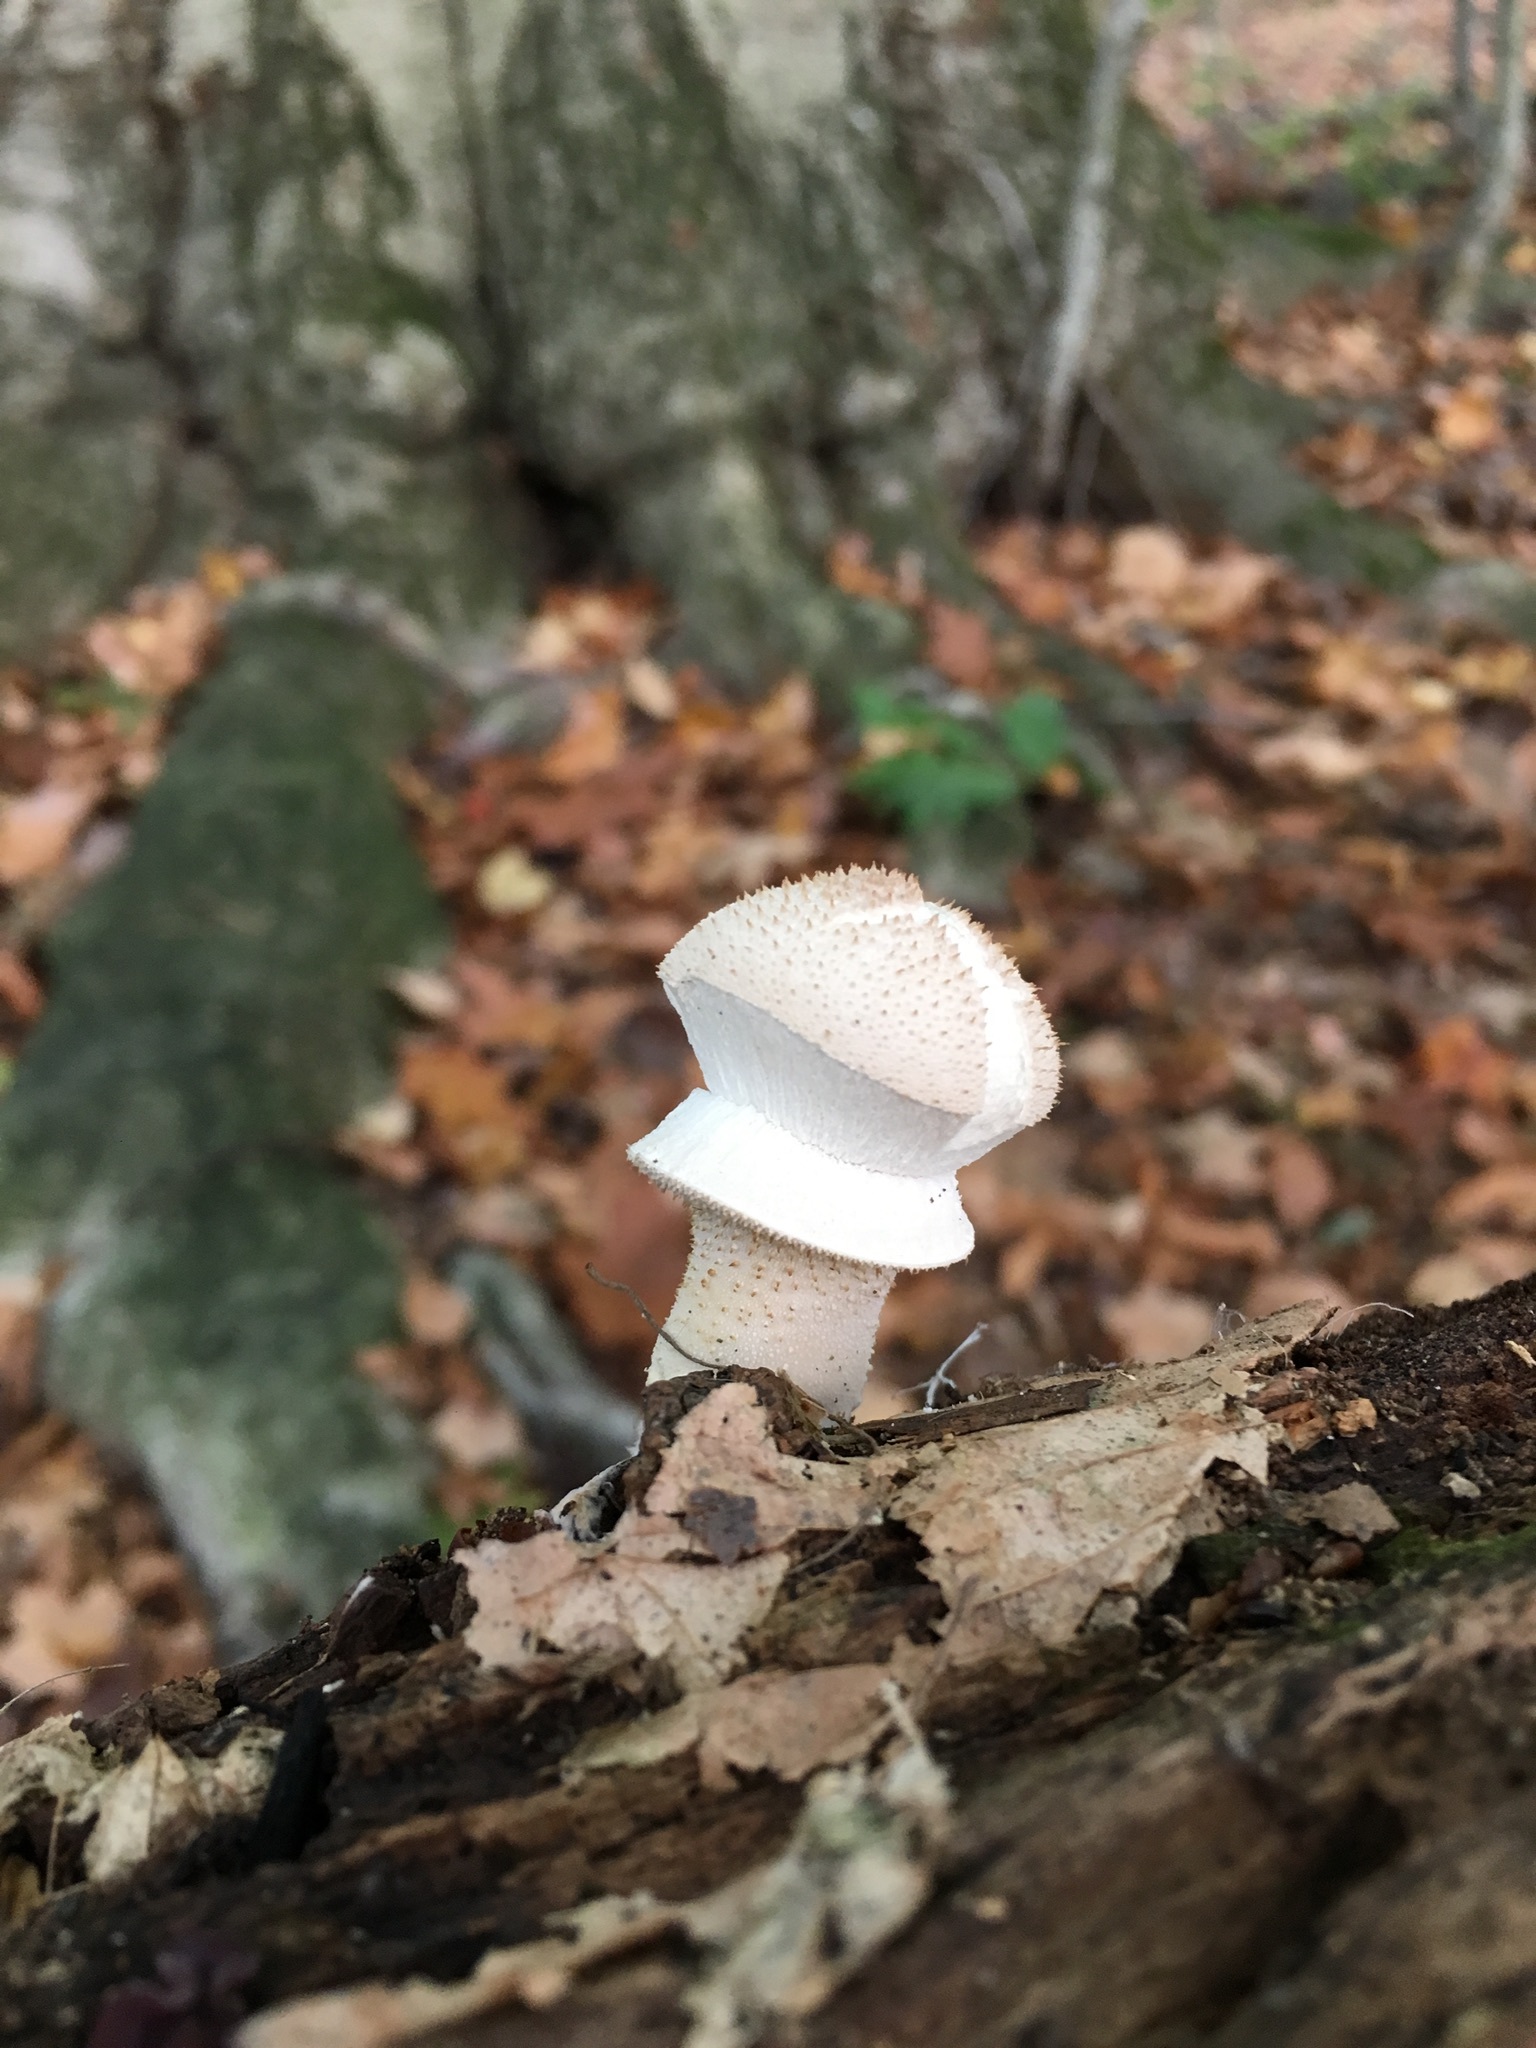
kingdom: Fungi
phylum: Basidiomycota
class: Agaricomycetes
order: Agaricales
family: Lycoperdaceae
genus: Lycoperdon
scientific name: Lycoperdon perlatum
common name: Common puffball
